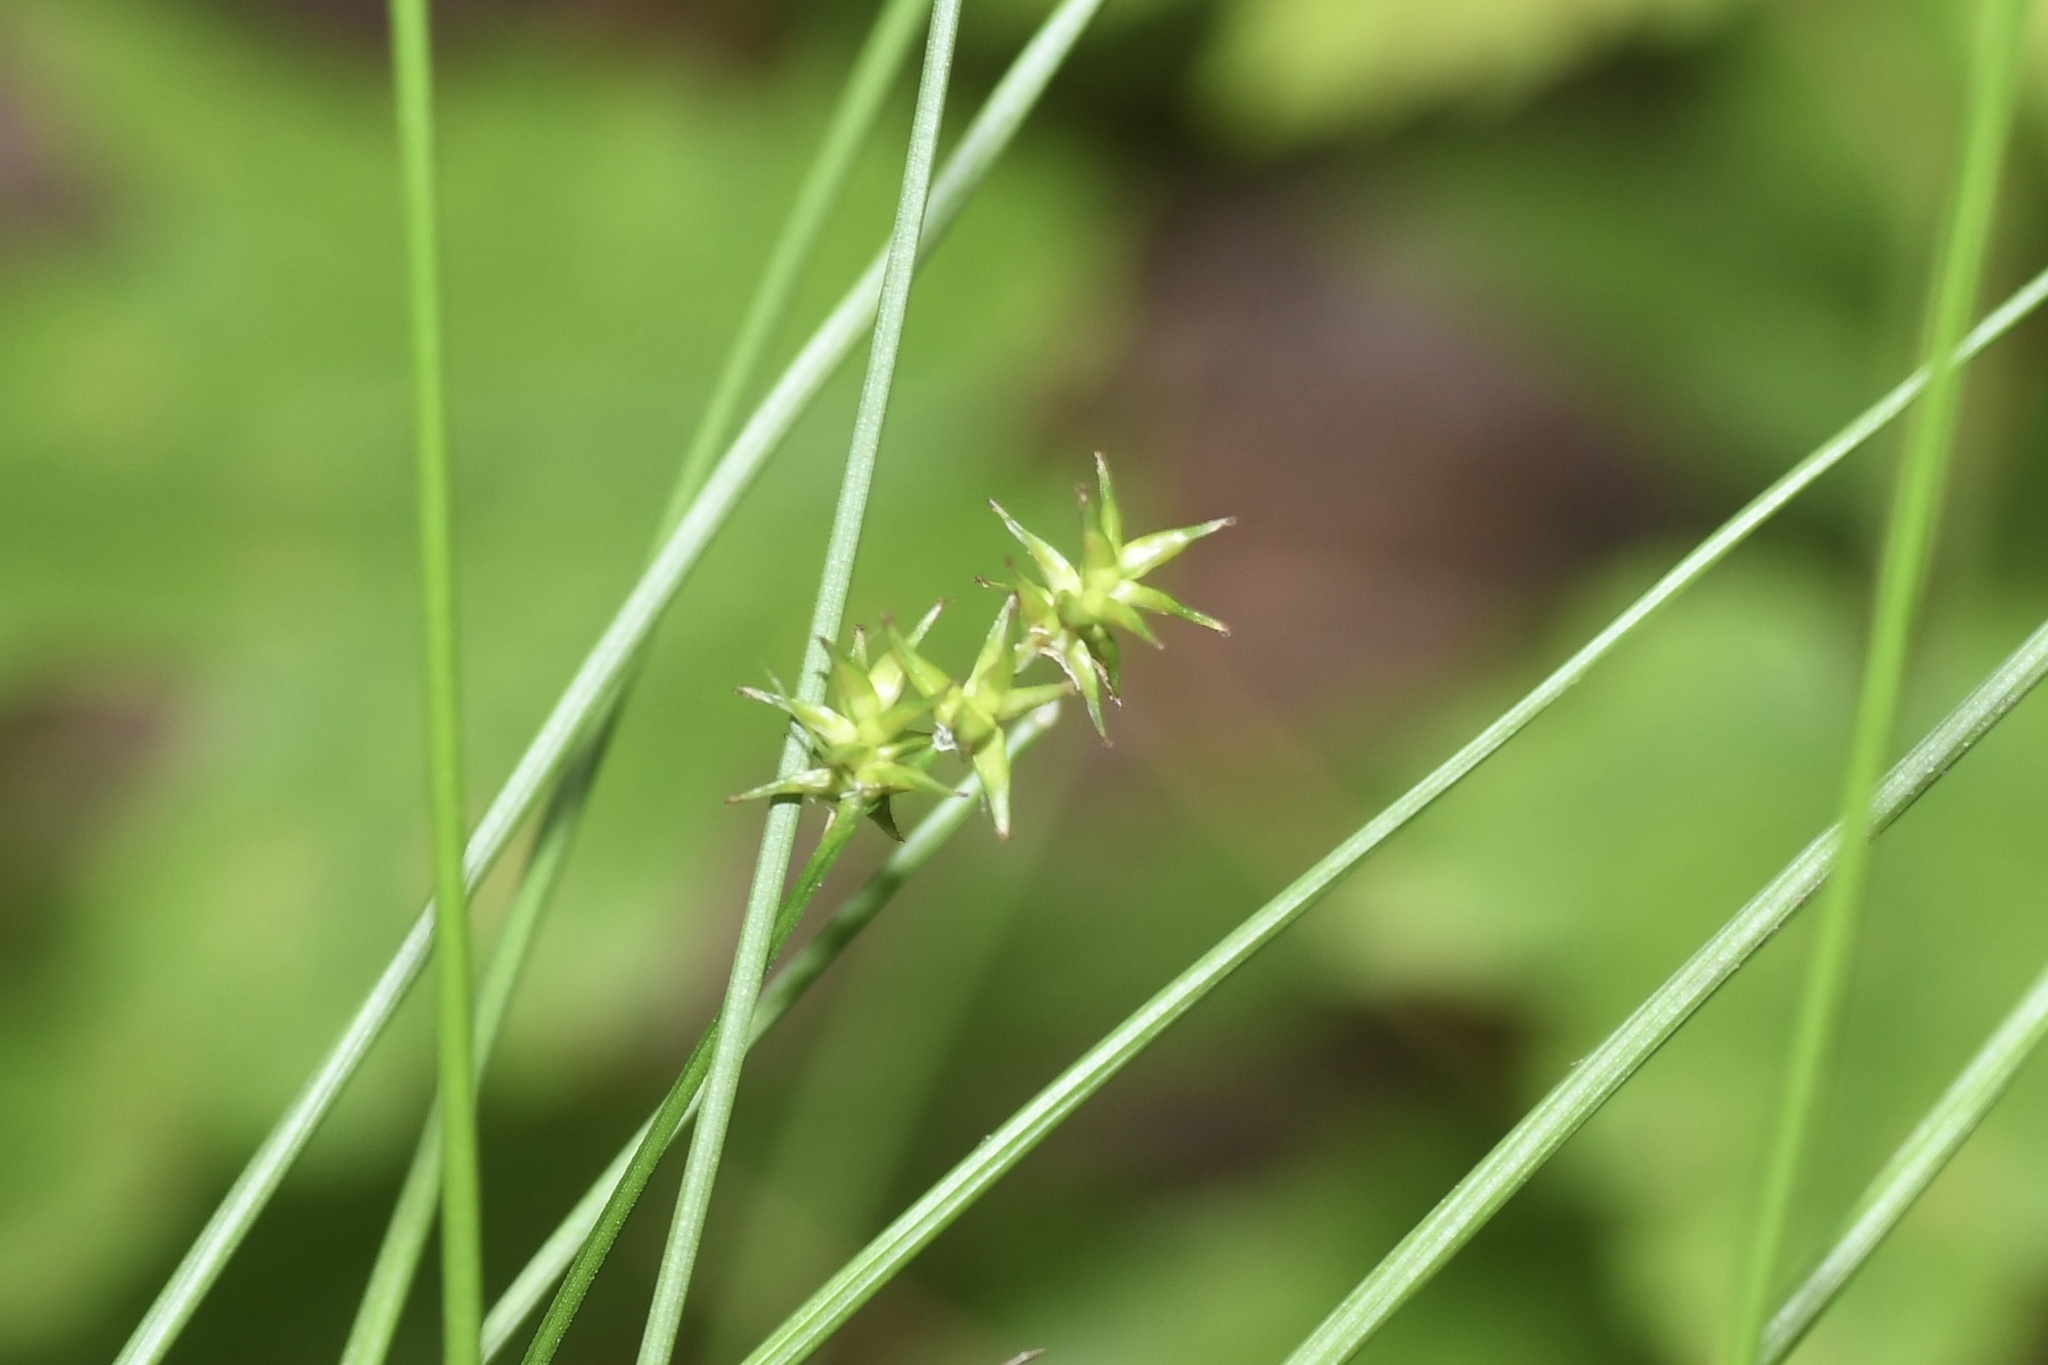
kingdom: Plantae
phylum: Tracheophyta
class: Liliopsida
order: Poales
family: Cyperaceae
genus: Carex
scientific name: Carex echinata
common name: Star sedge
